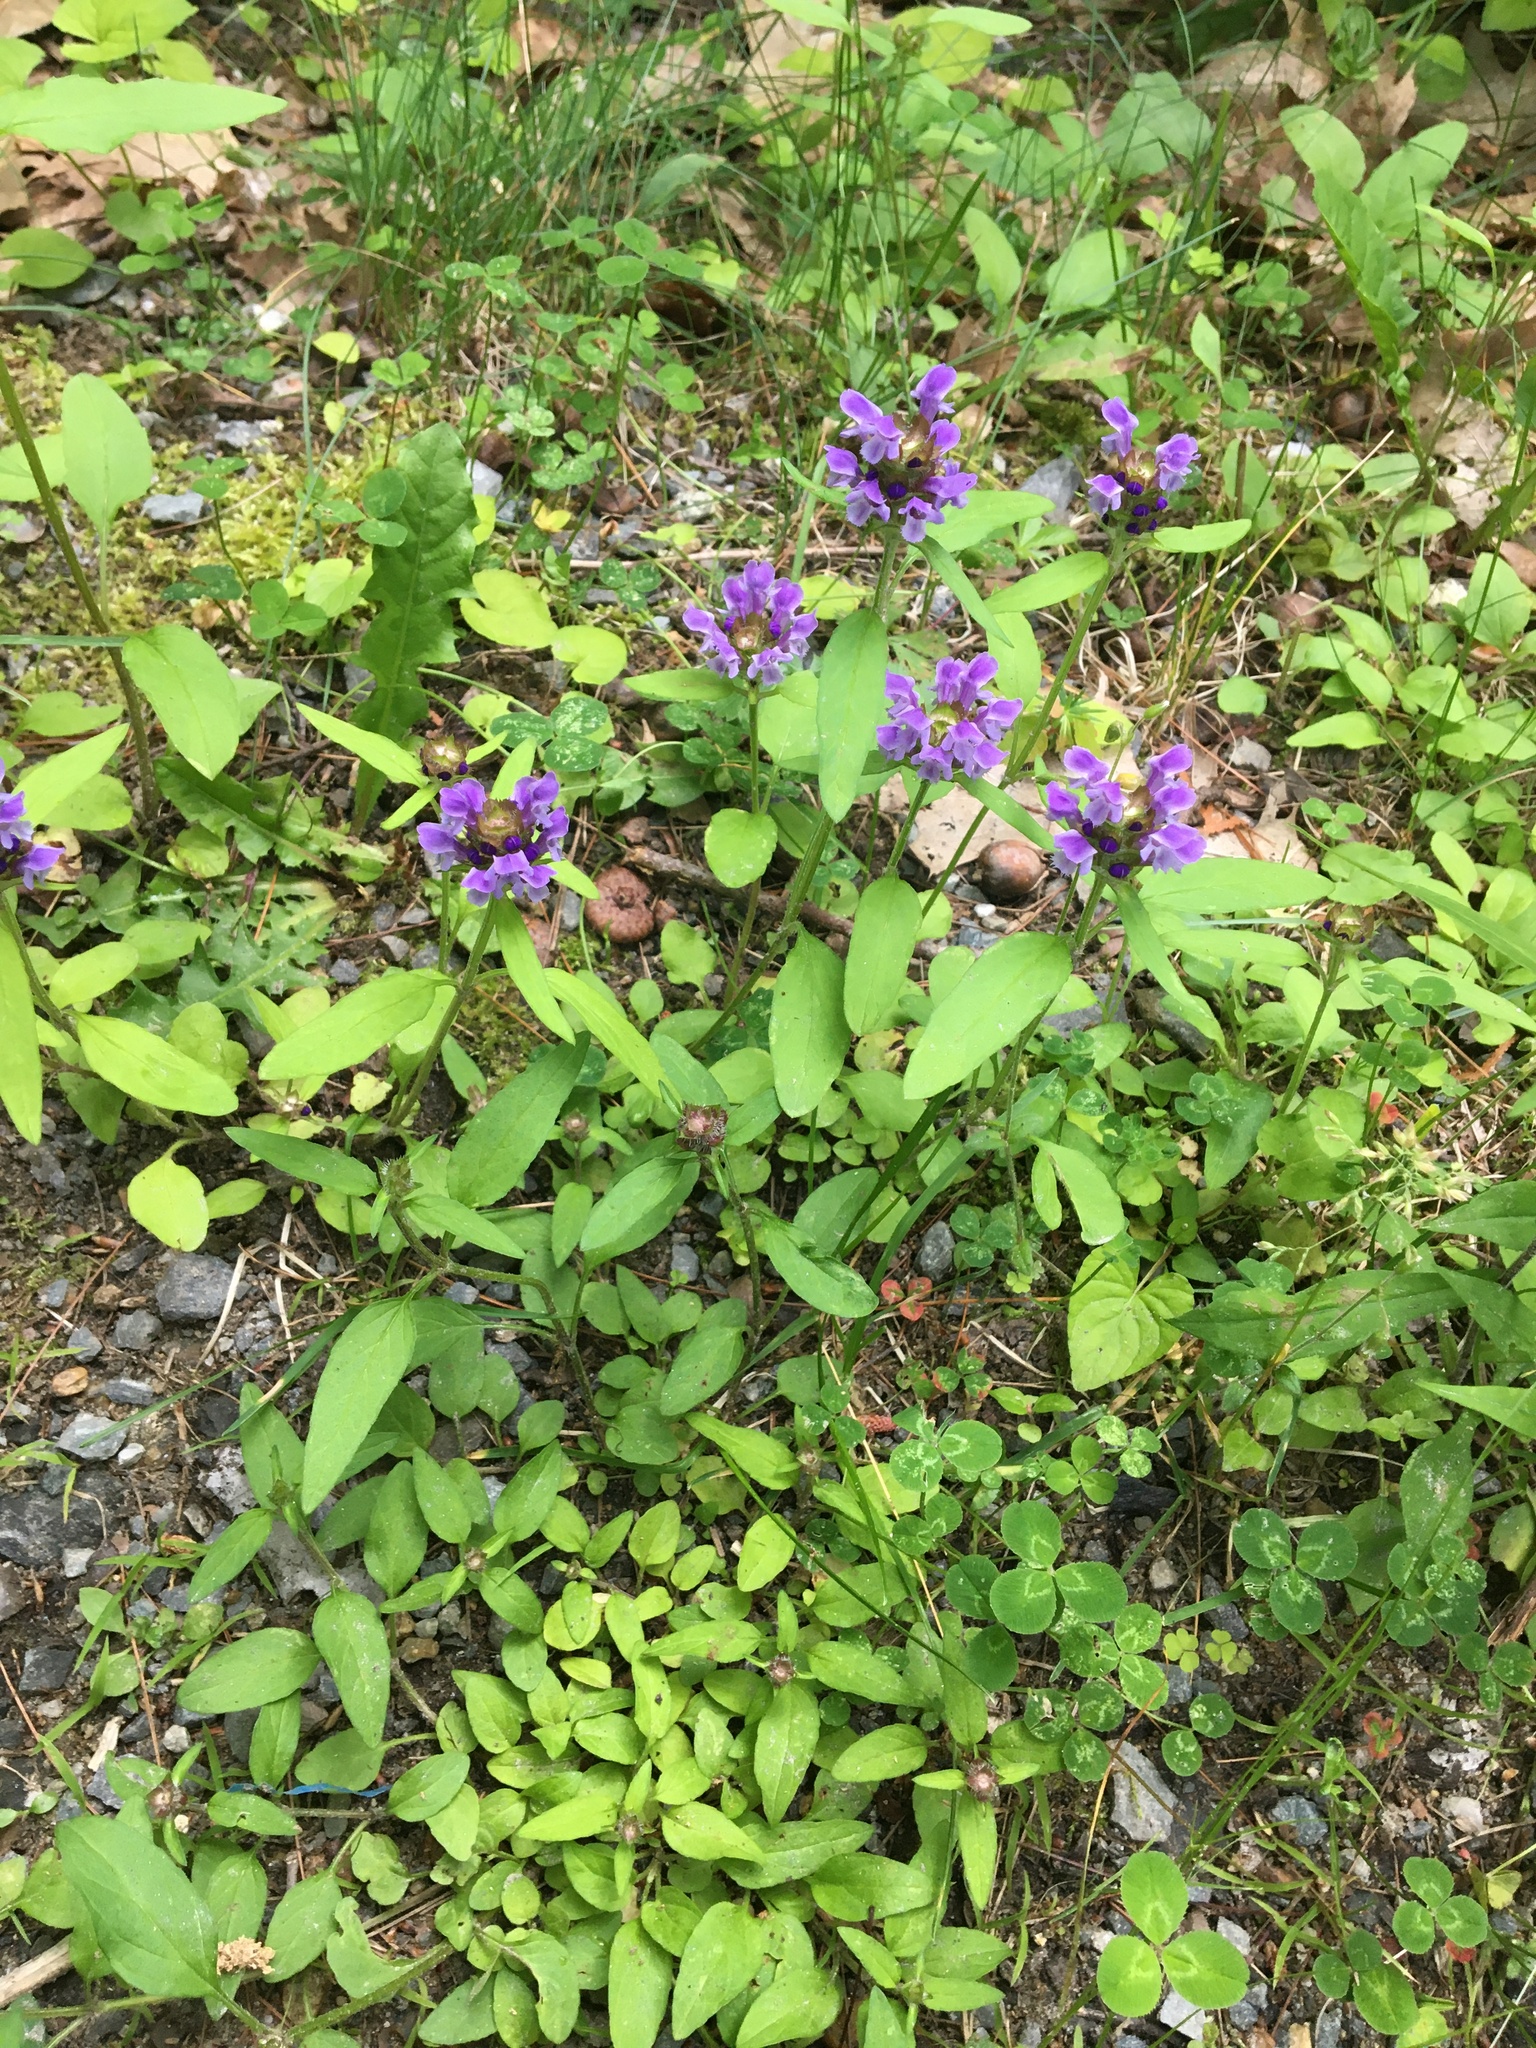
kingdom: Plantae
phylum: Tracheophyta
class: Magnoliopsida
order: Lamiales
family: Lamiaceae
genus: Prunella
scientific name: Prunella vulgaris
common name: Heal-all
